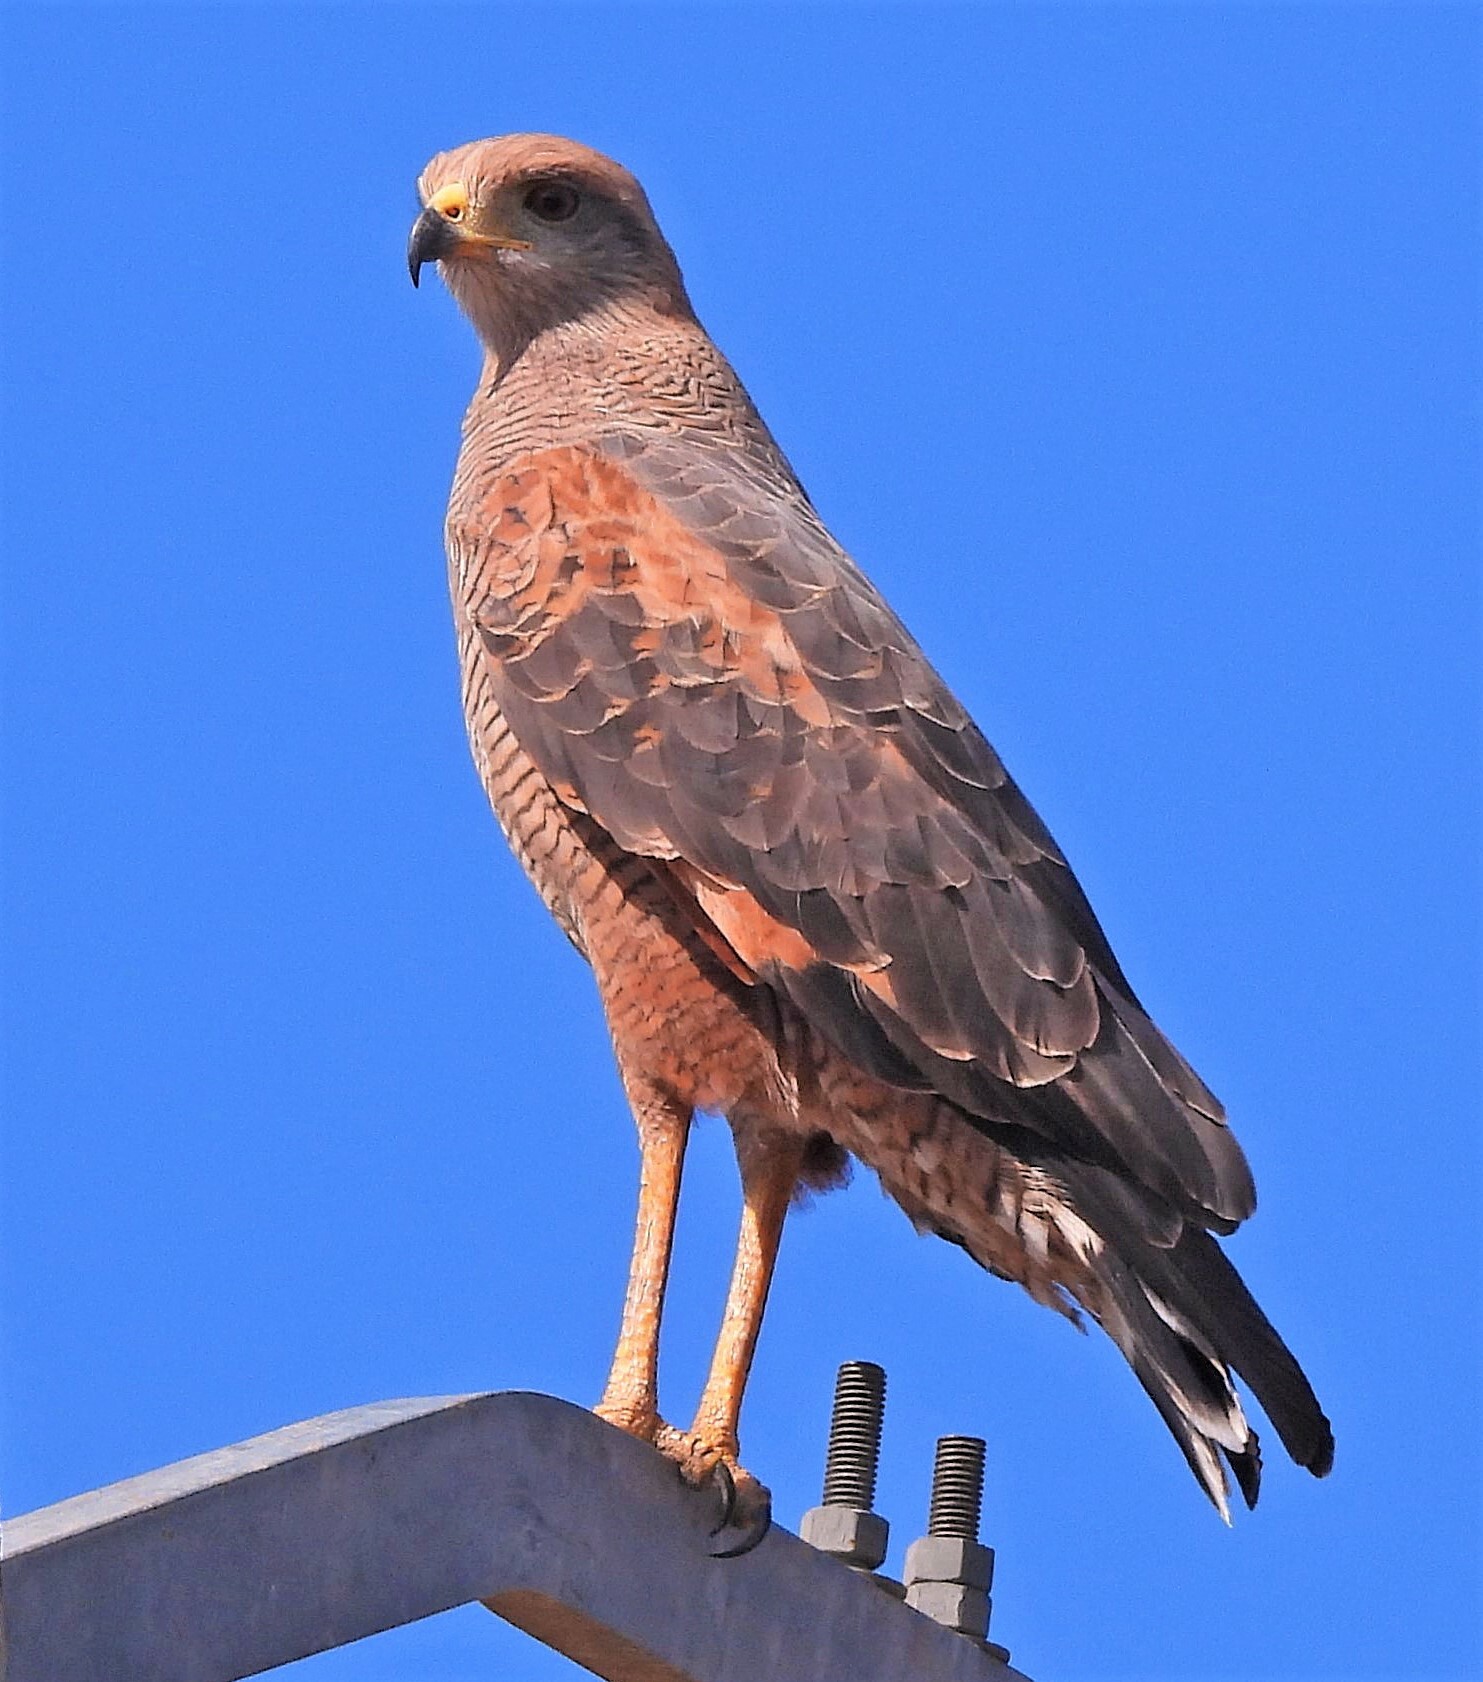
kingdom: Animalia
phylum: Chordata
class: Aves
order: Accipitriformes
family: Accipitridae
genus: Buteogallus
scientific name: Buteogallus meridionalis
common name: Savanna hawk
